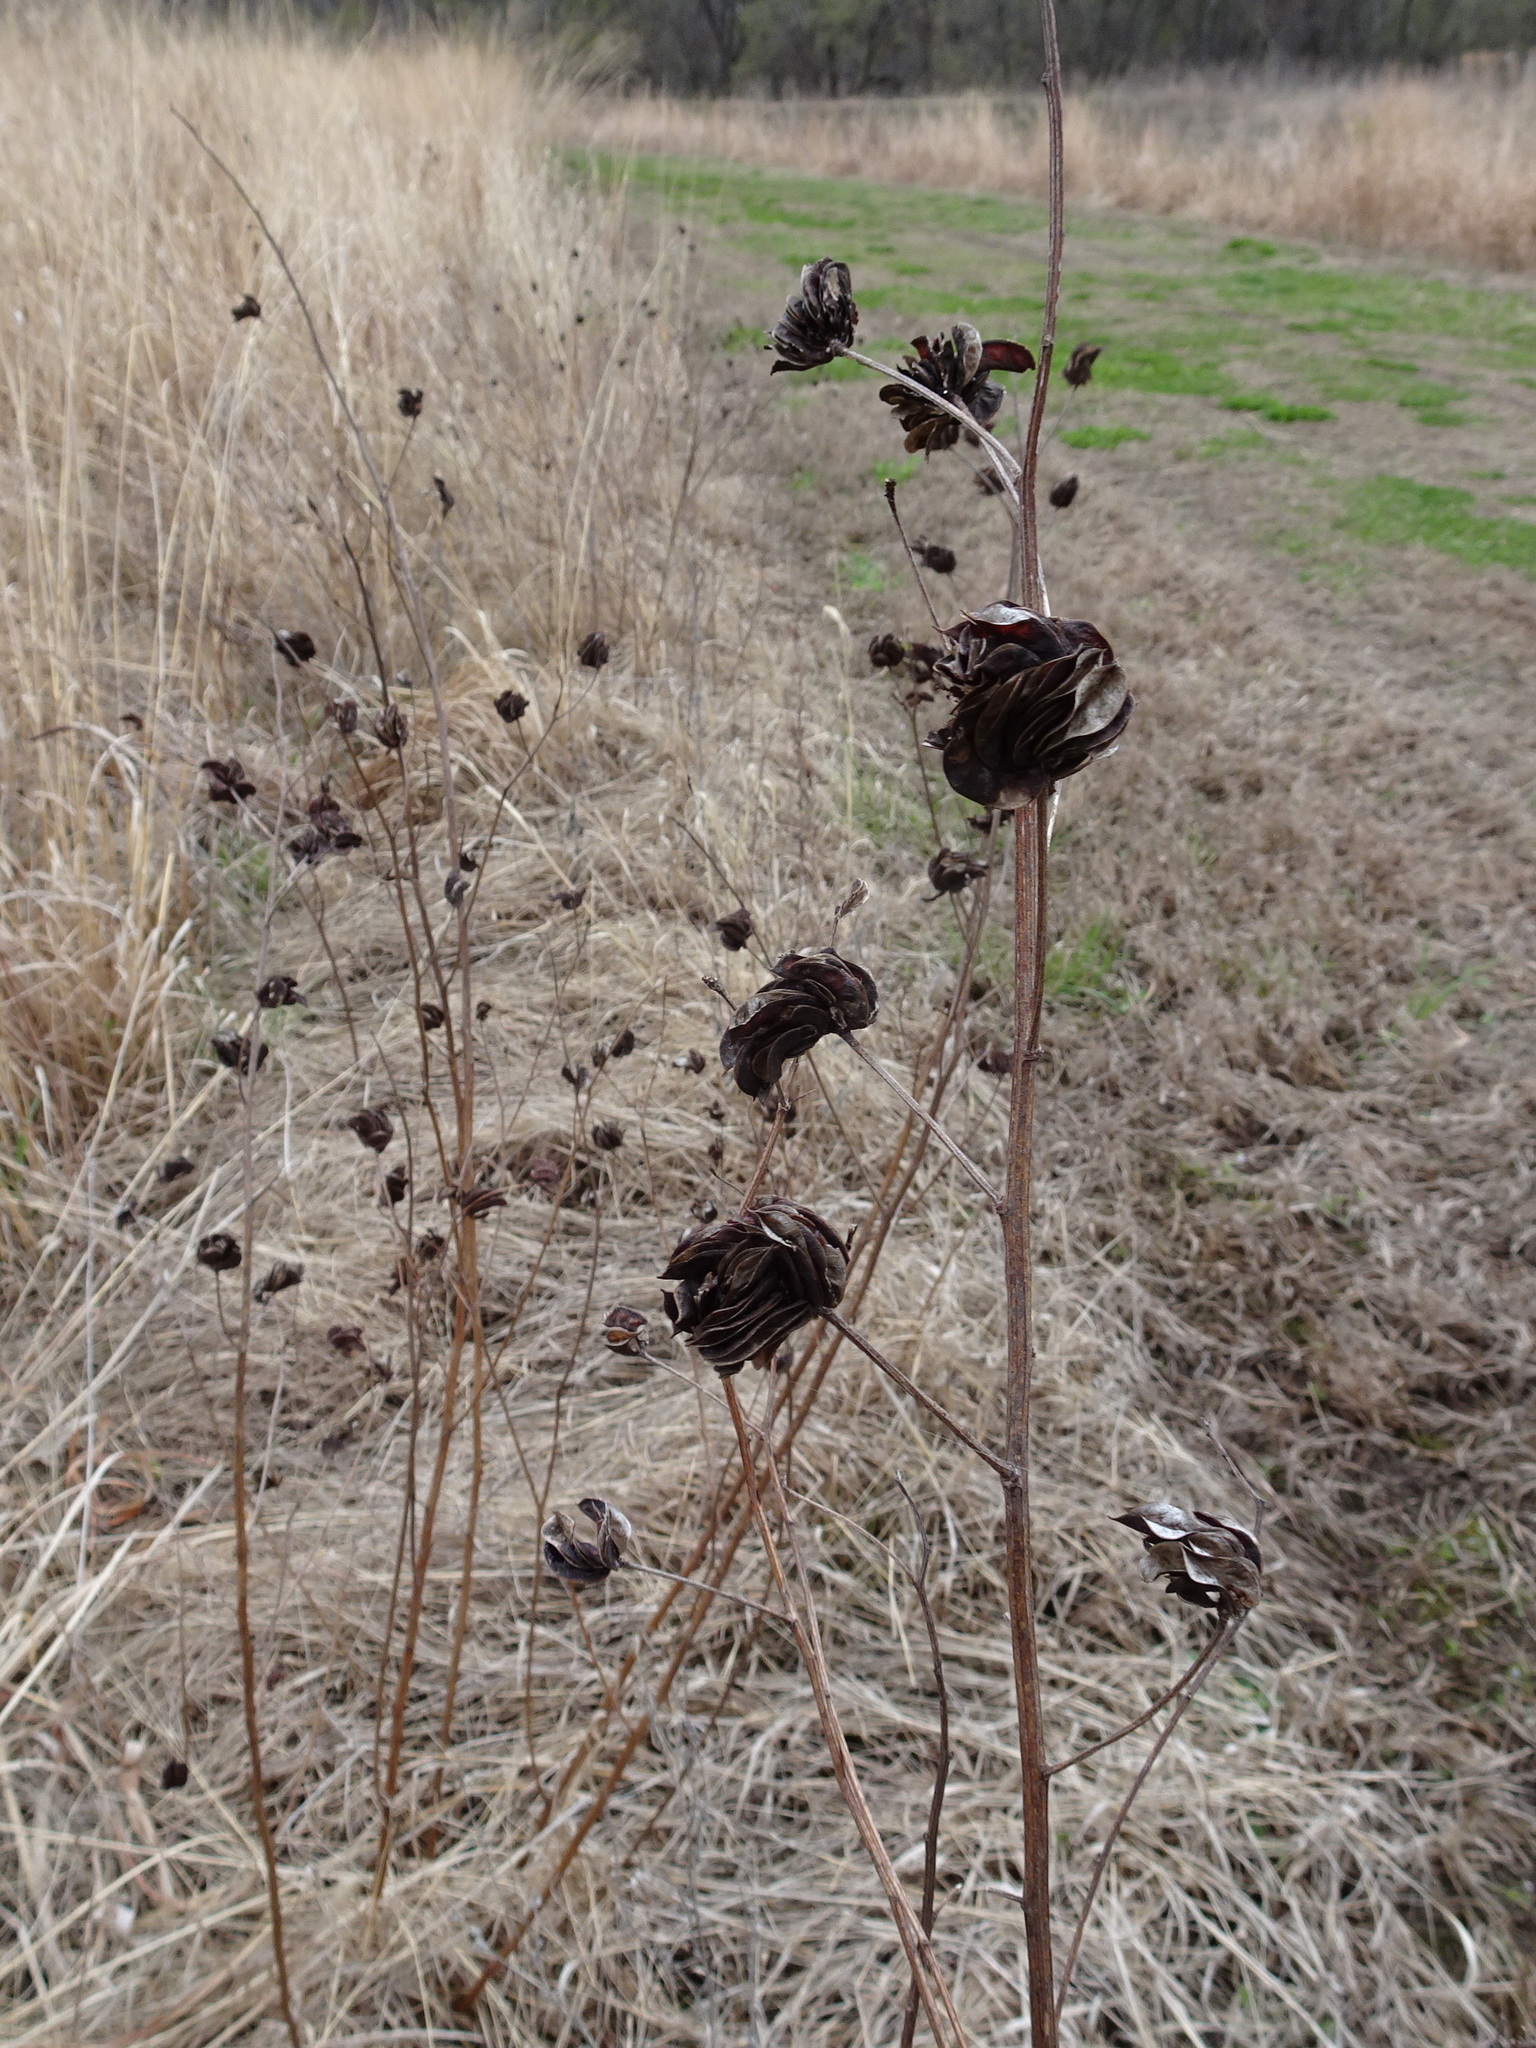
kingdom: Plantae
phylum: Tracheophyta
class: Magnoliopsida
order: Fabales
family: Fabaceae
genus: Desmanthus
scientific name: Desmanthus illinoensis
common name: Illinois bundle-flower
